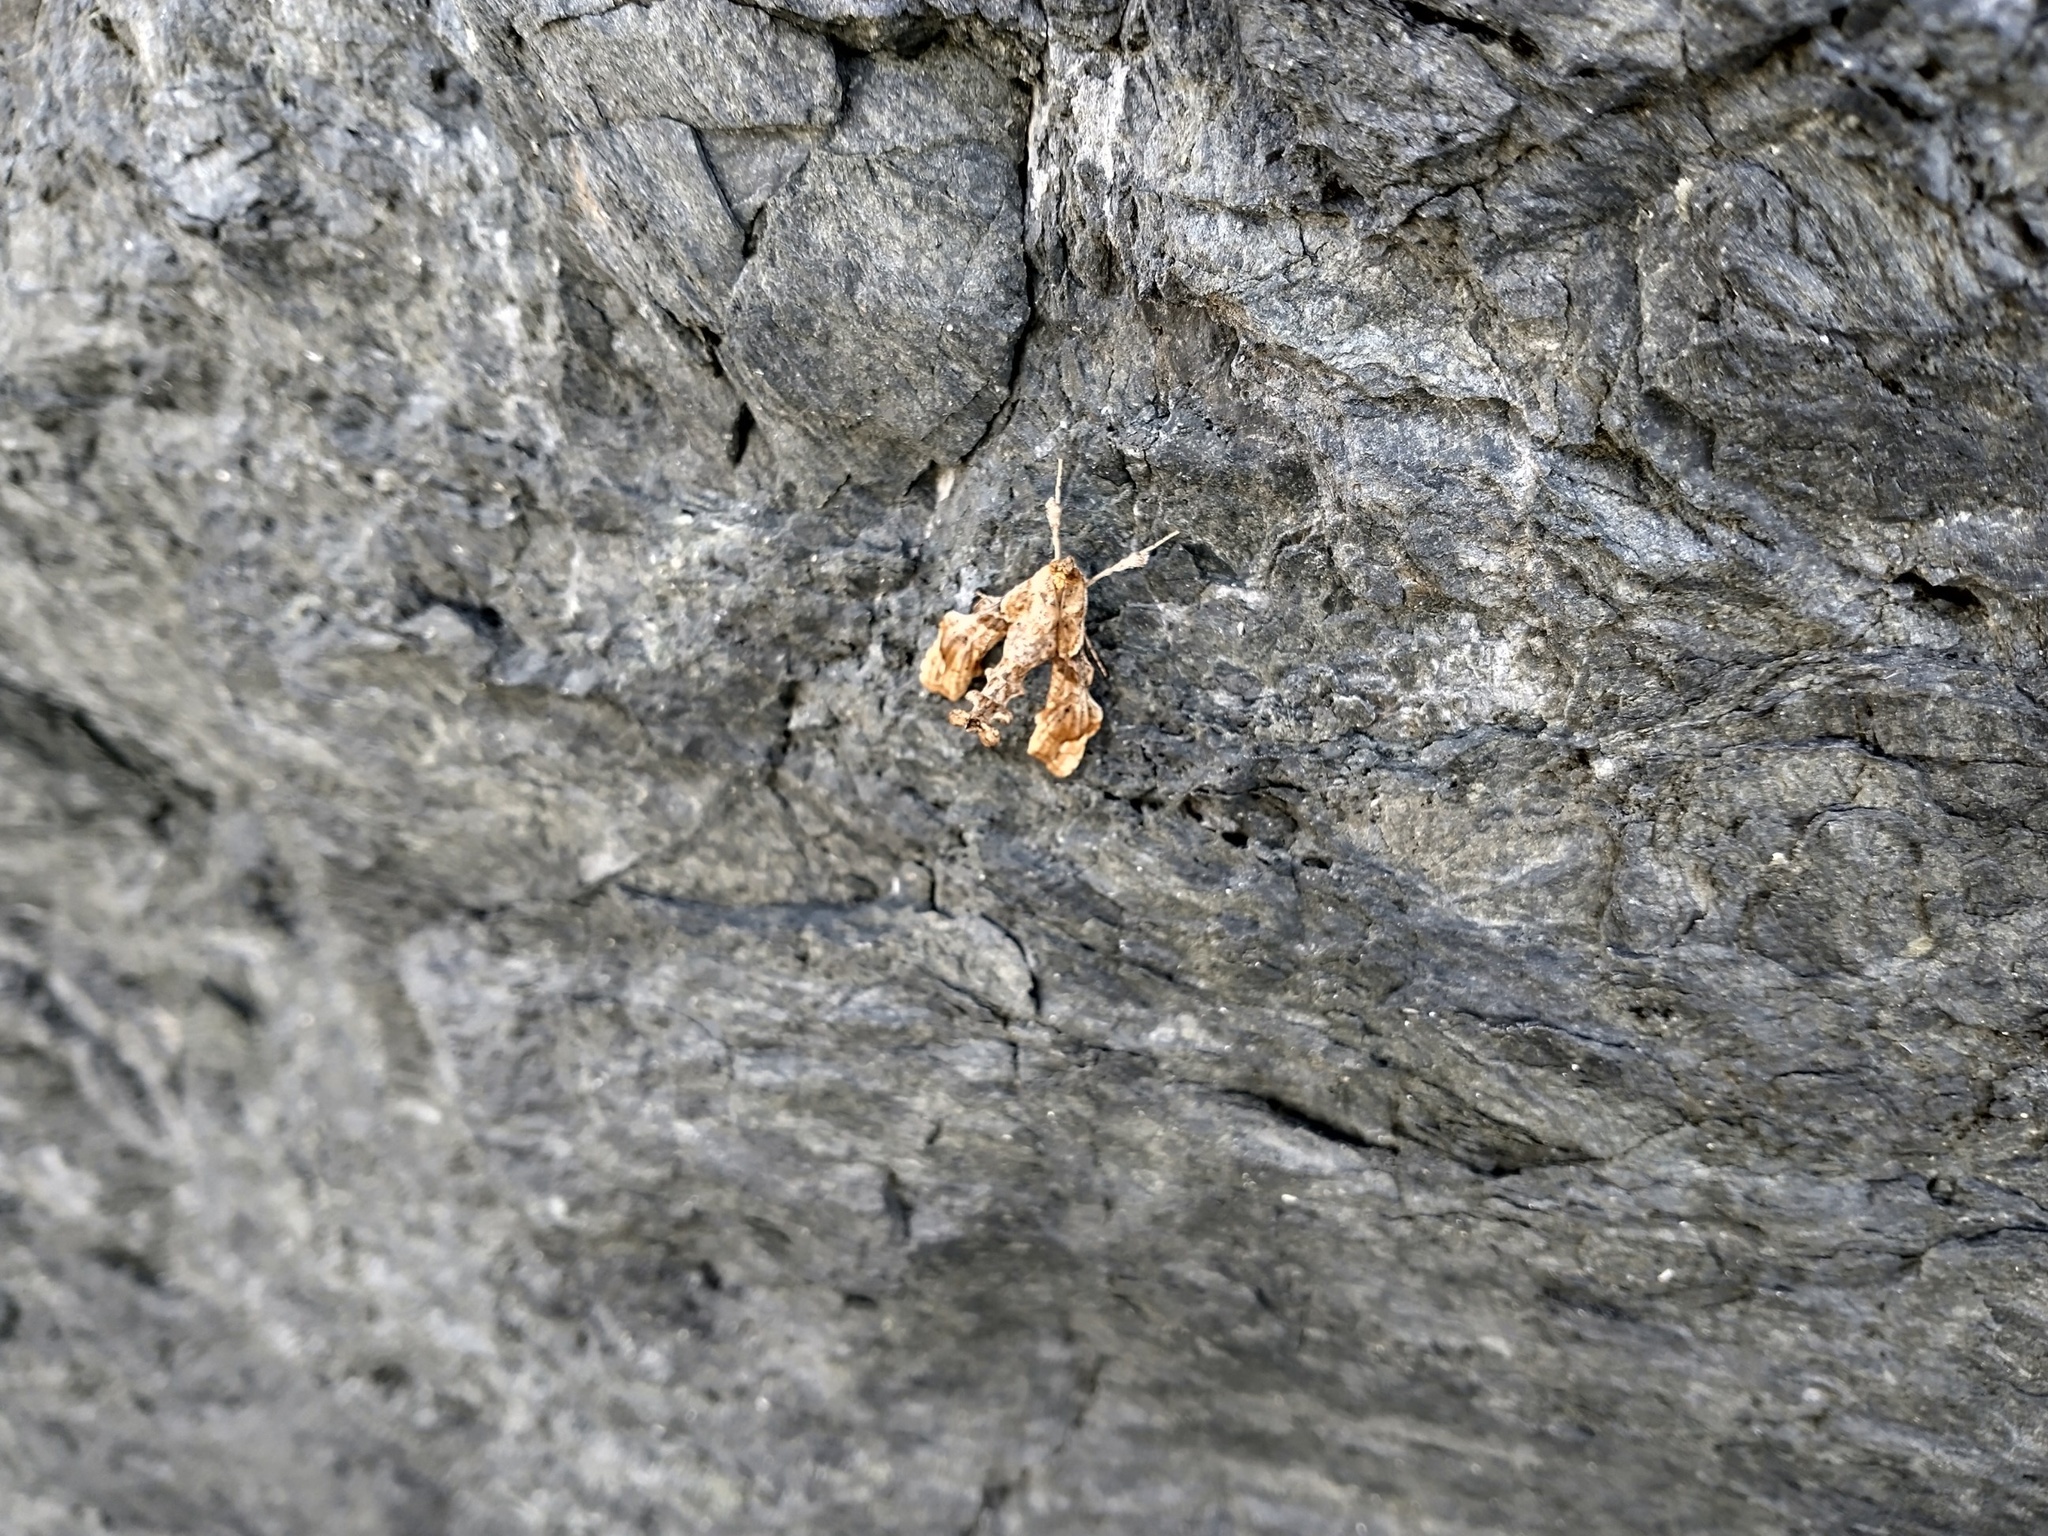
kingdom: Animalia
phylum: Arthropoda
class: Insecta
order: Lepidoptera
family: Crambidae
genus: Terastia
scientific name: Terastia meticulosalis
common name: Moth
